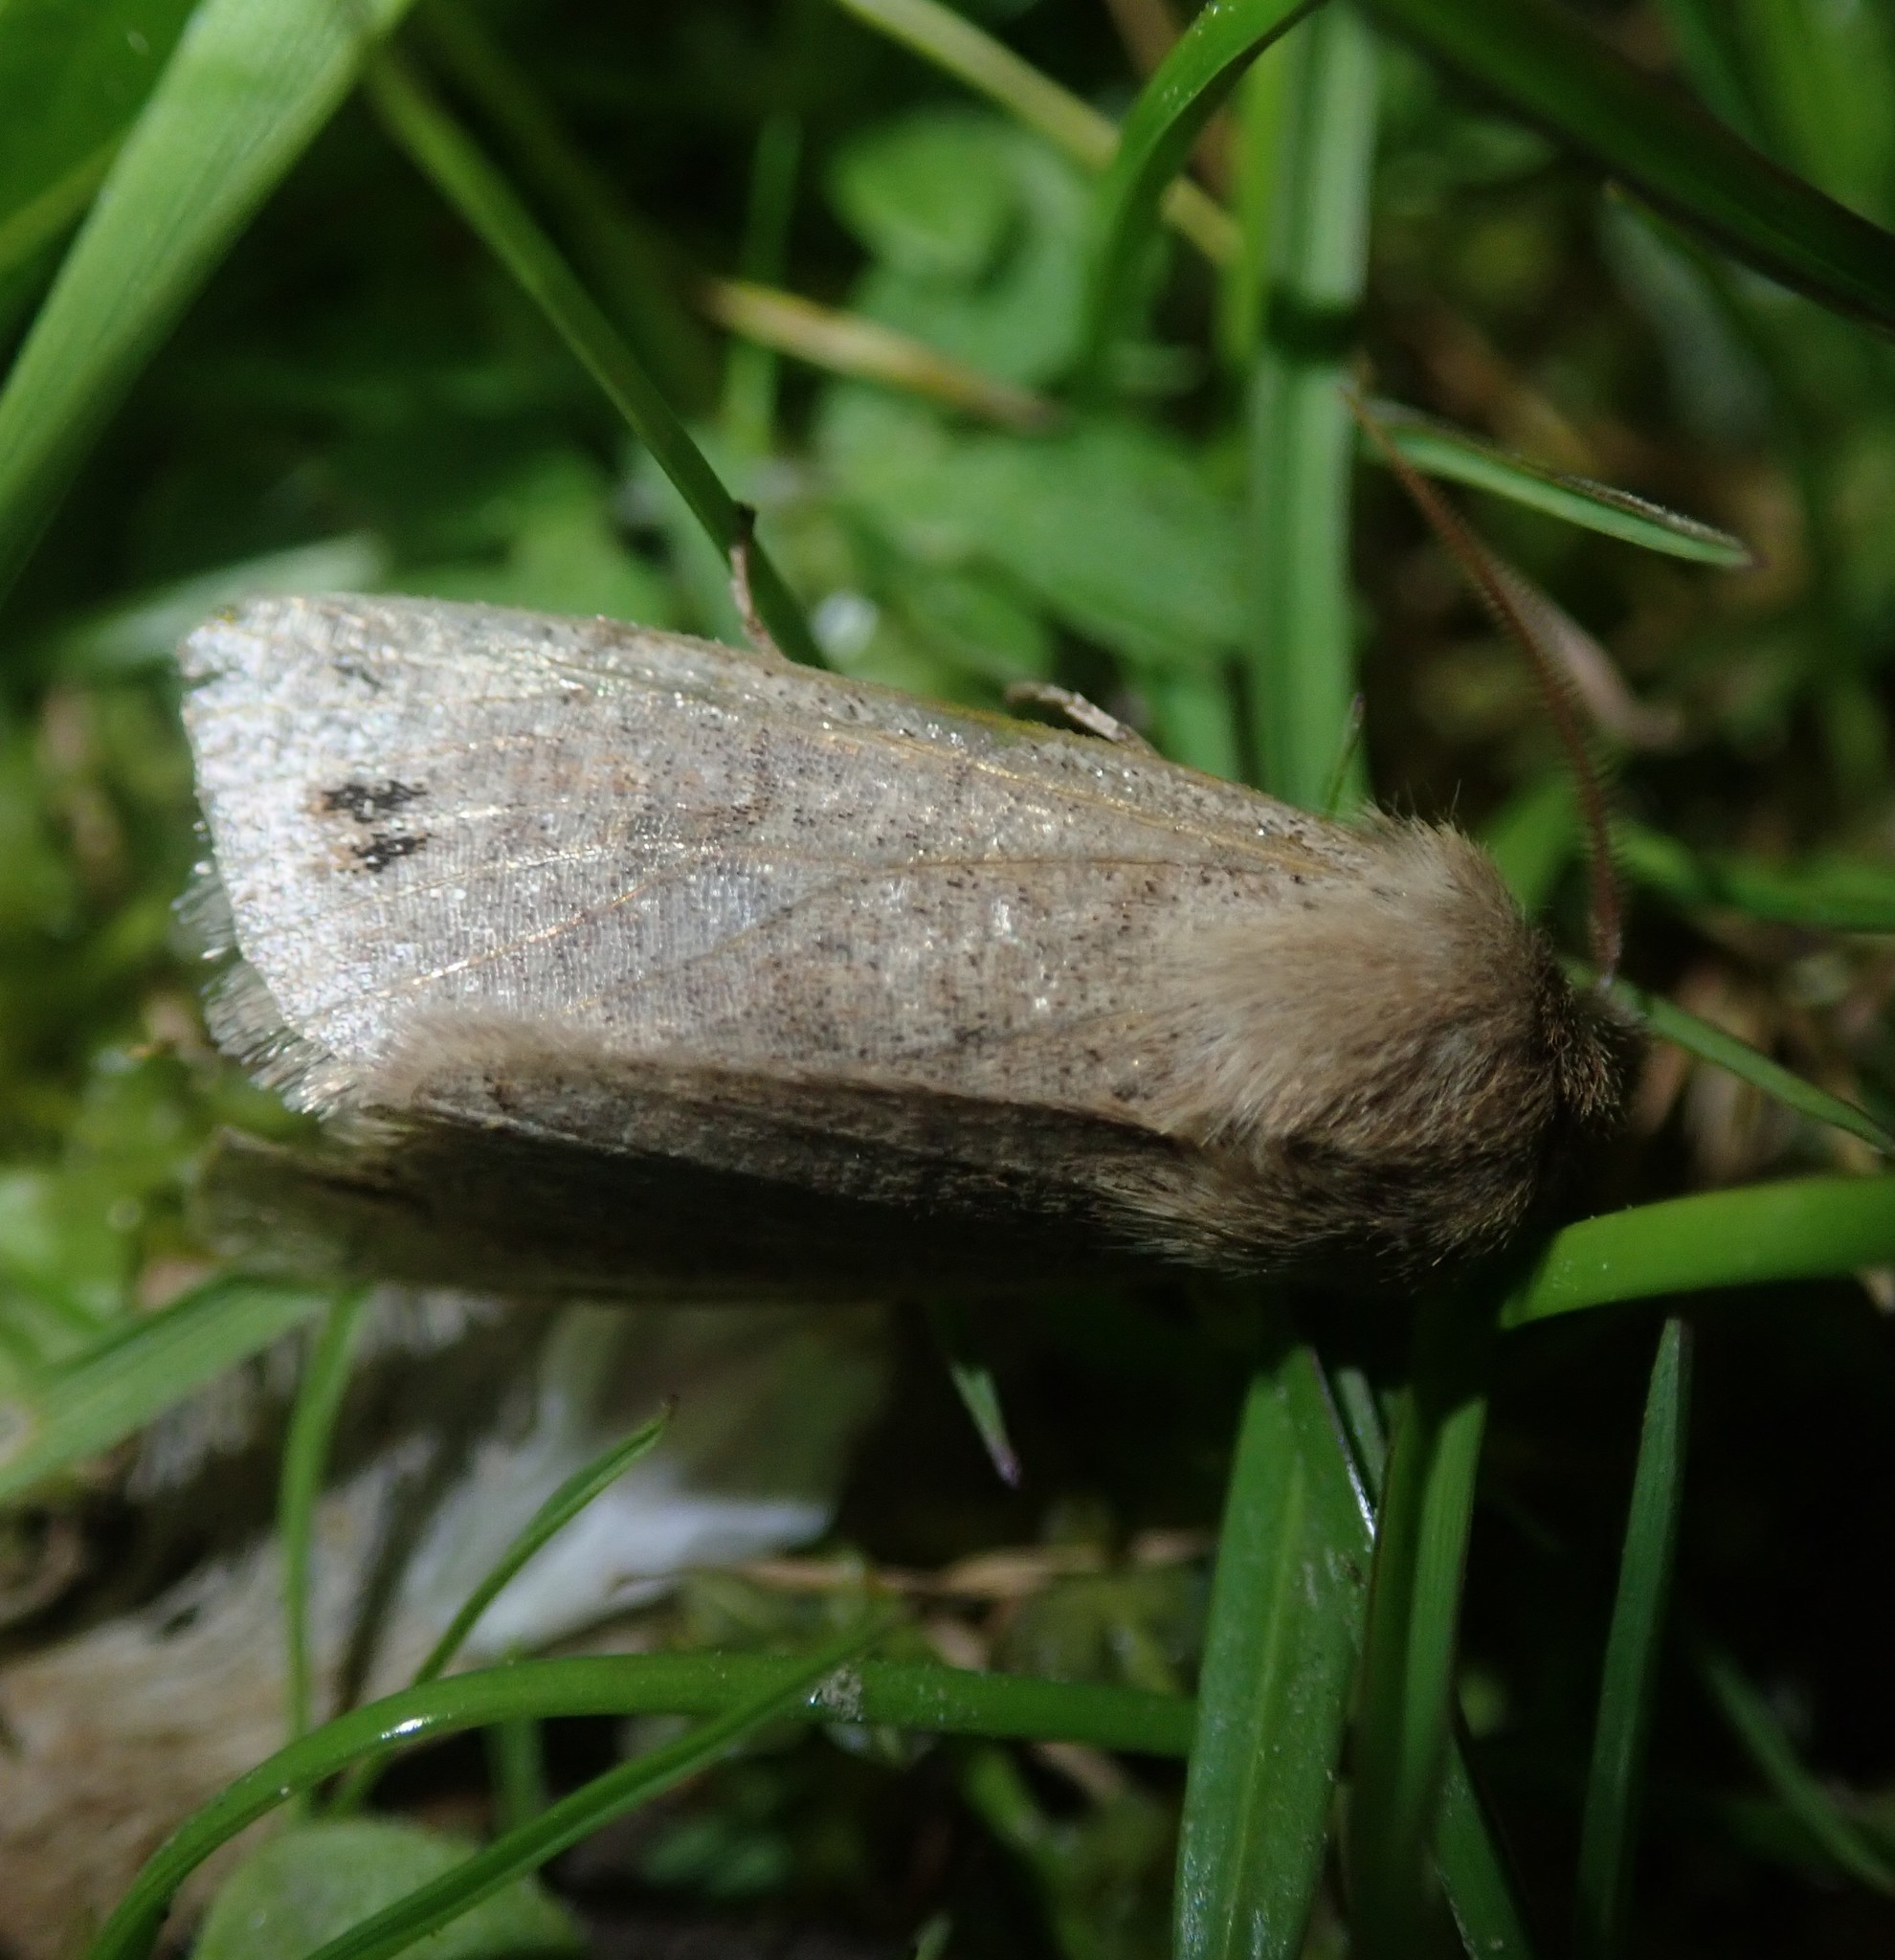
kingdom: Animalia
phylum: Arthropoda
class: Insecta
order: Lepidoptera
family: Noctuidae
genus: Anorthoa
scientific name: Anorthoa munda
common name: Twin-spotted quaker
